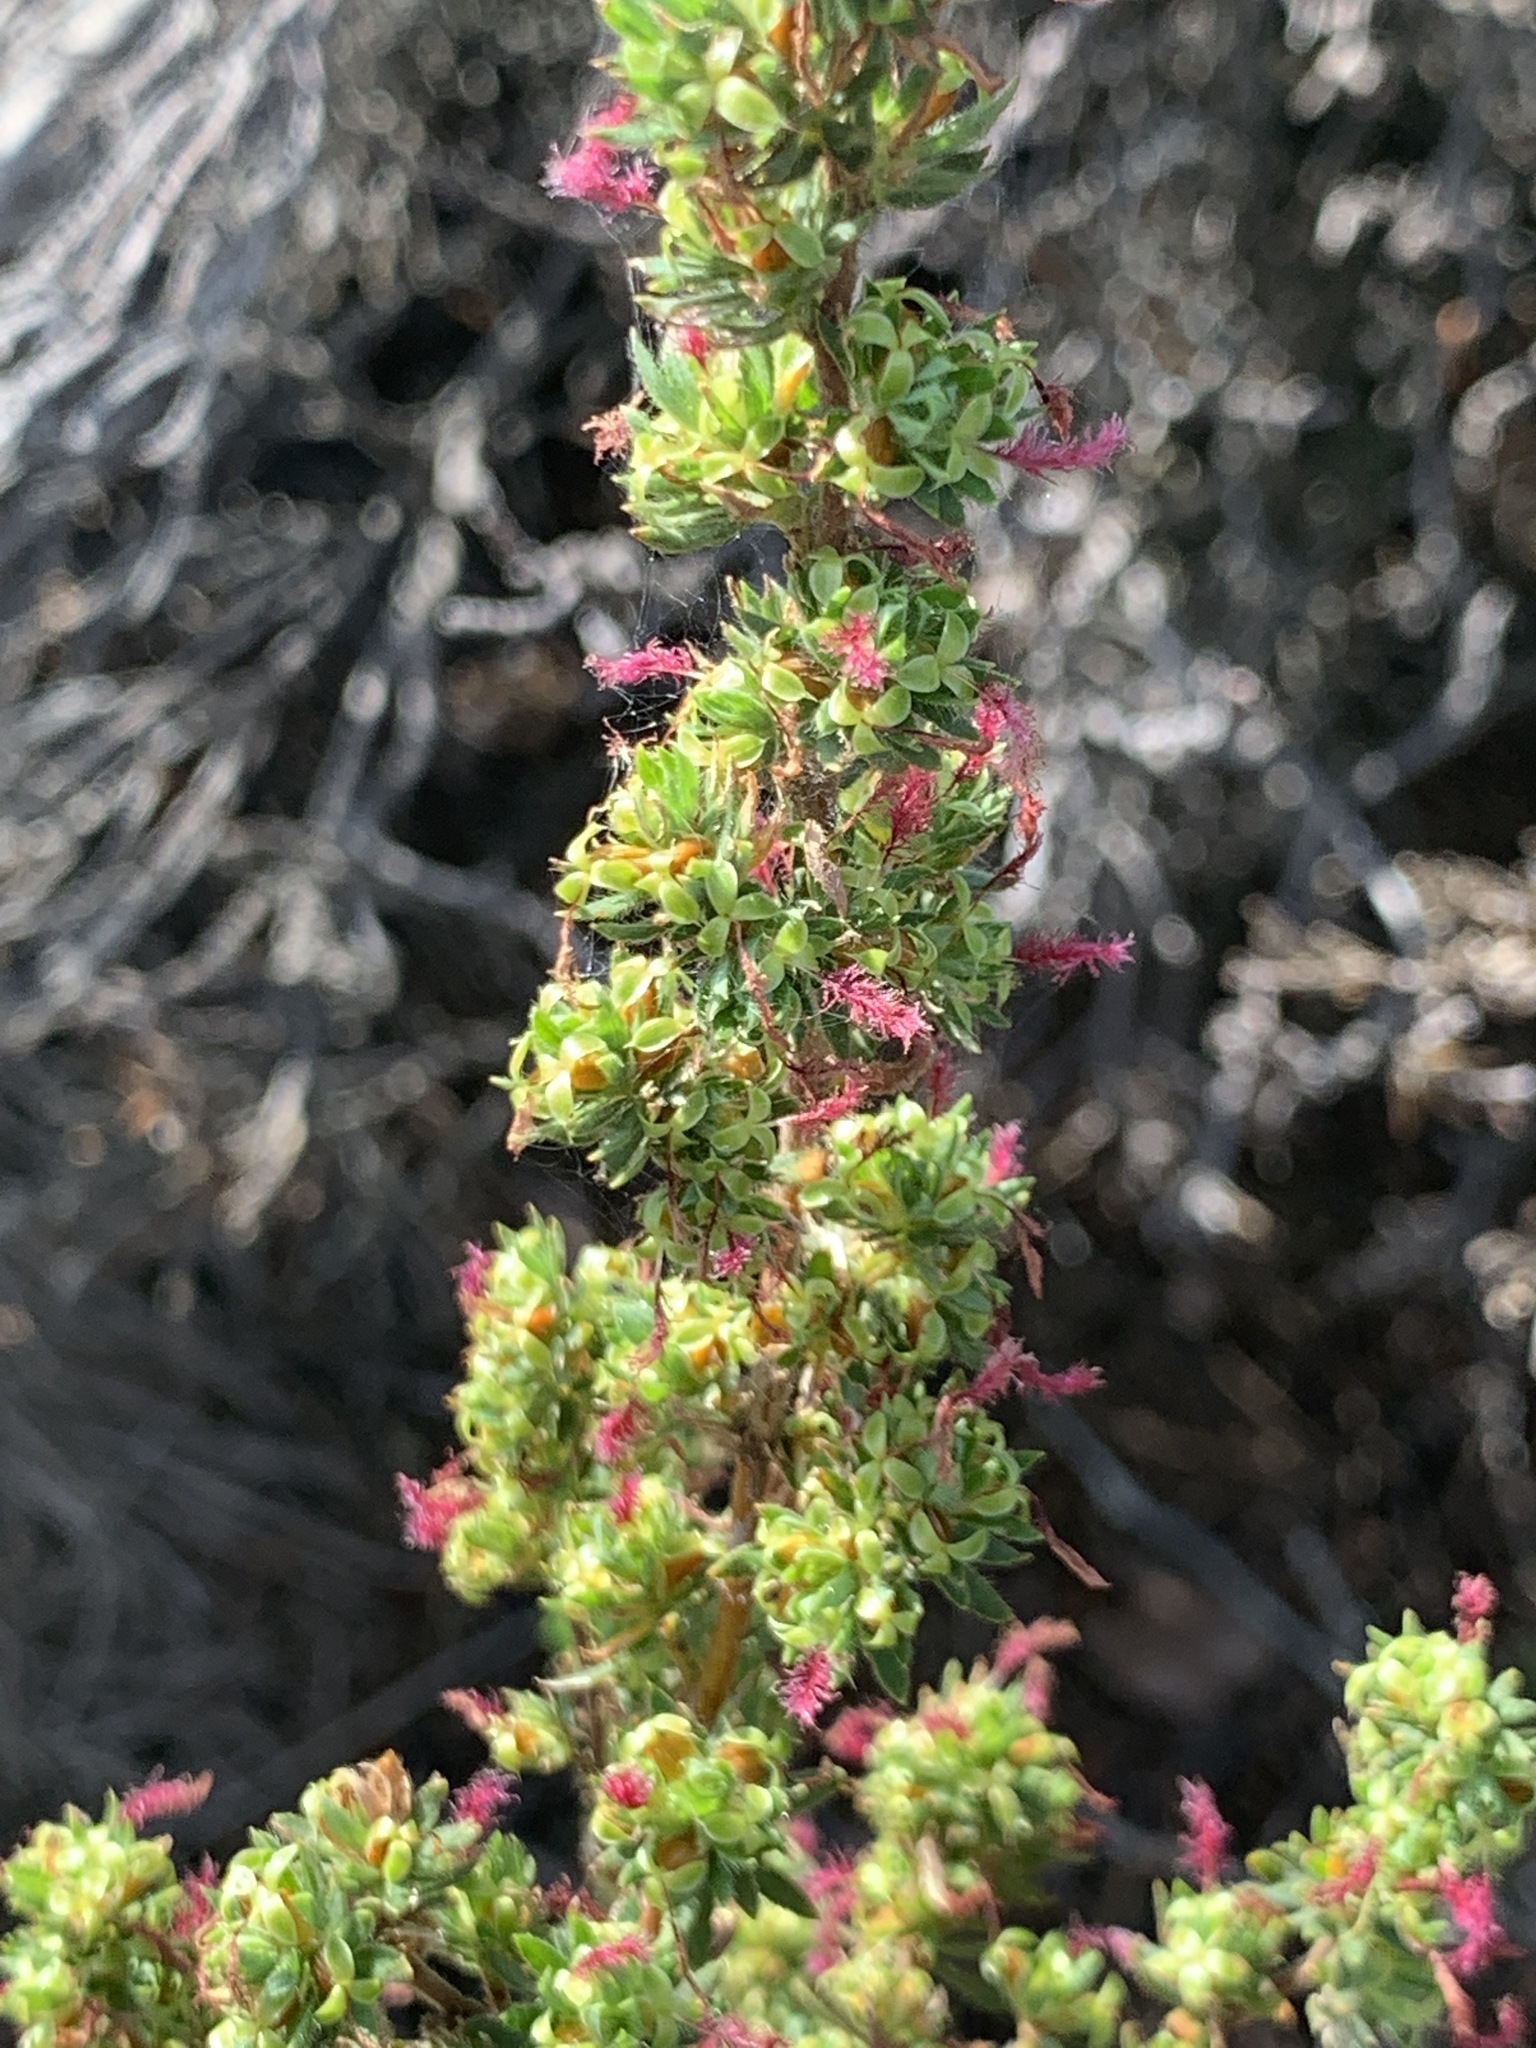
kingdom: Plantae
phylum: Tracheophyta
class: Magnoliopsida
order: Rosales
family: Rosaceae
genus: Cliffortia
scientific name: Cliffortia polygonifolia
